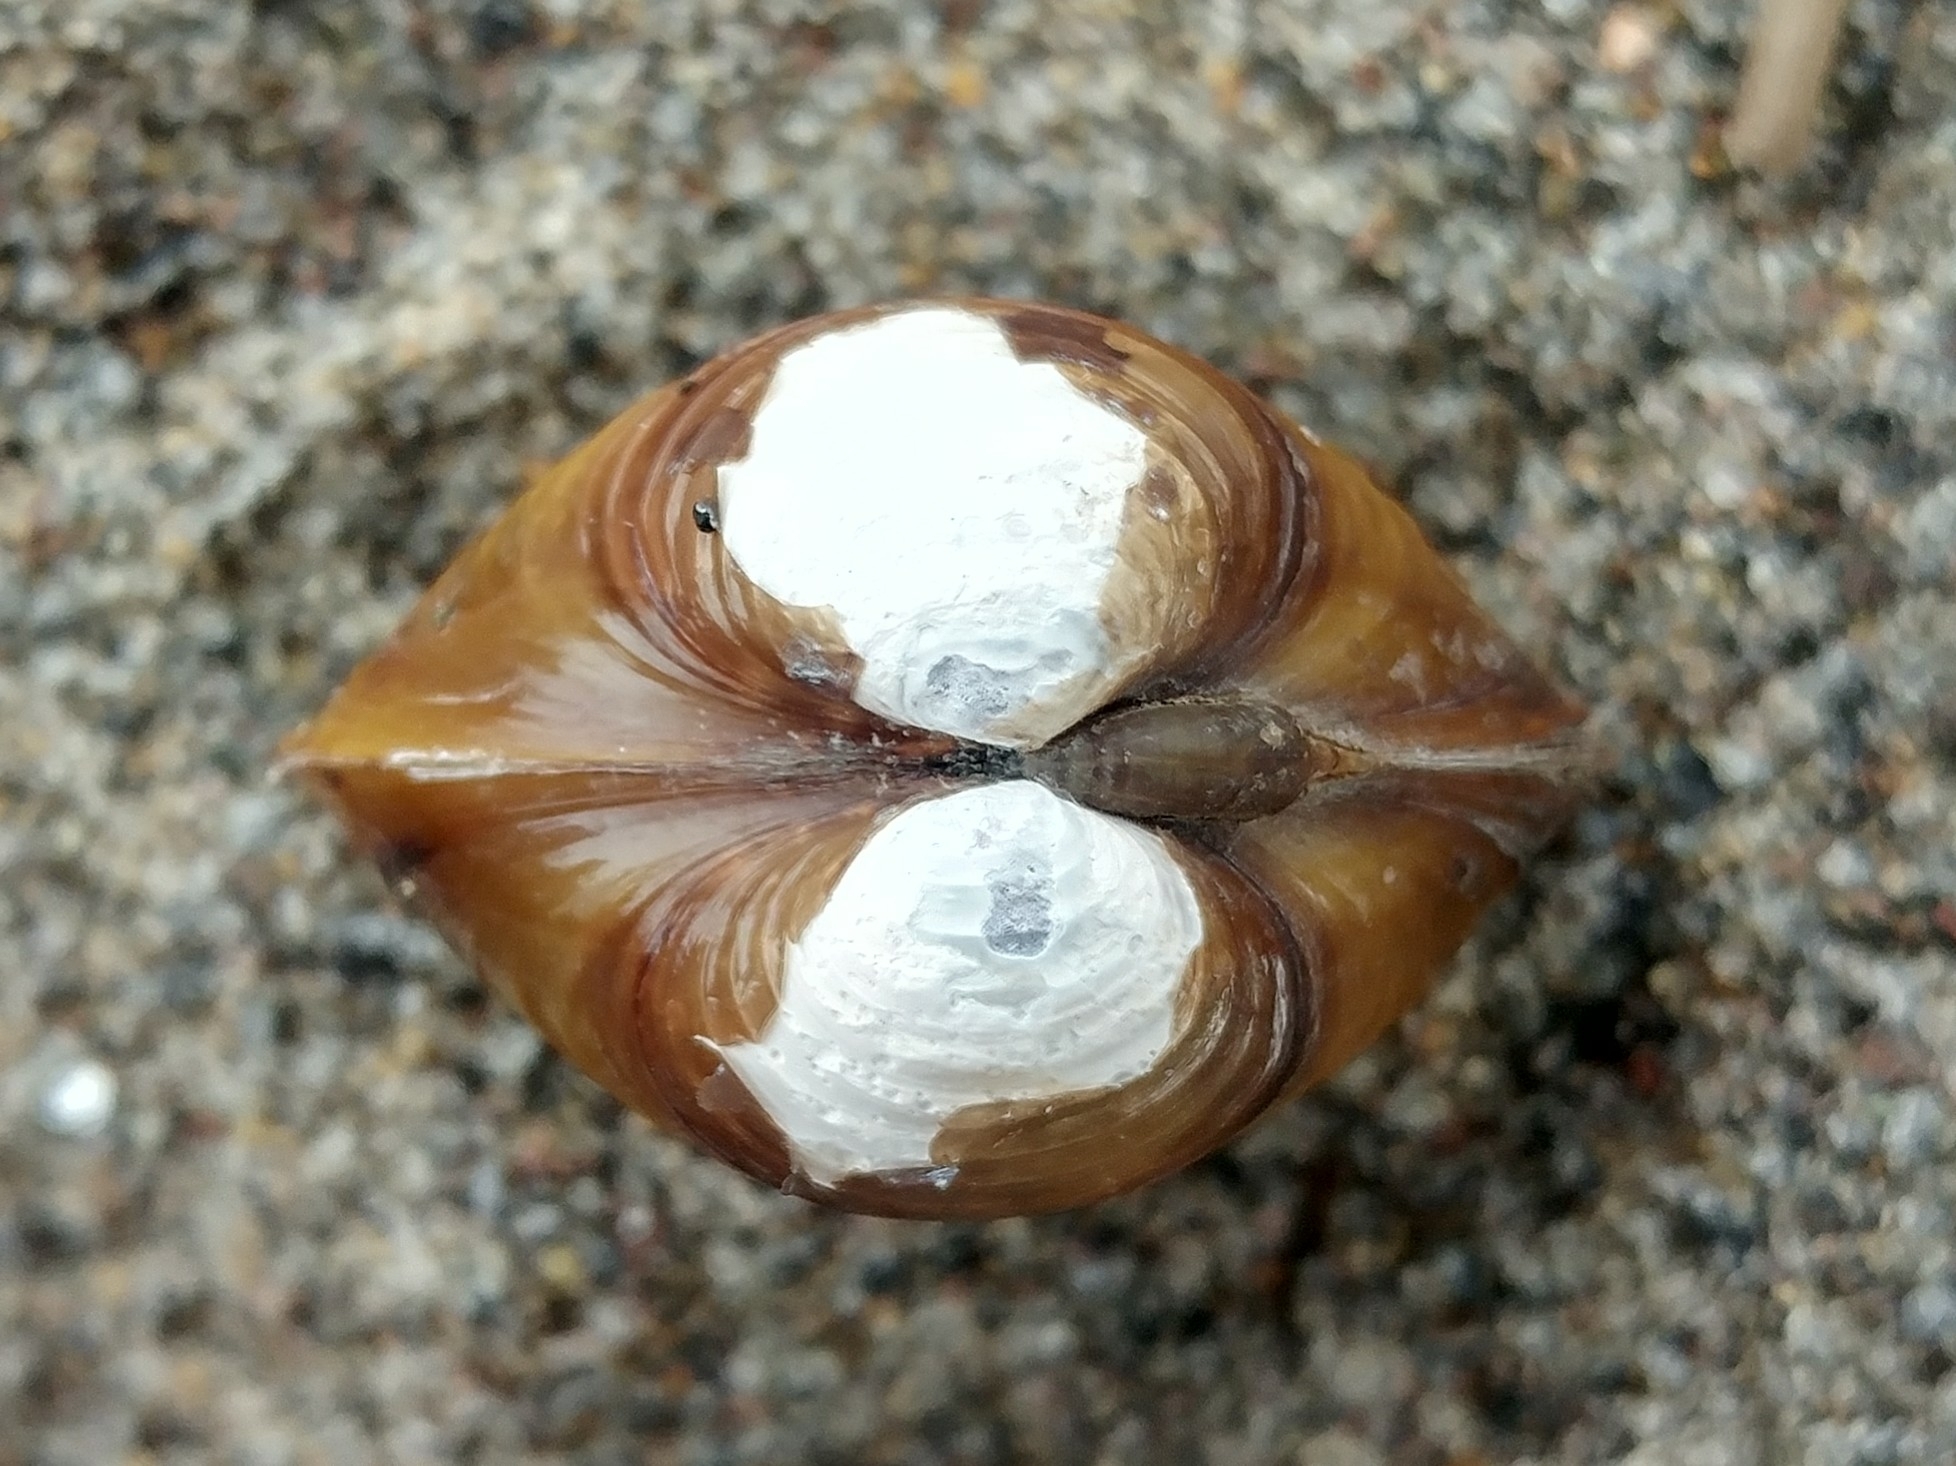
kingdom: Animalia
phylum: Mollusca
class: Bivalvia
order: Venerida
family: Cyrenidae
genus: Corbicula
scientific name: Corbicula fluminea
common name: Asian clam
